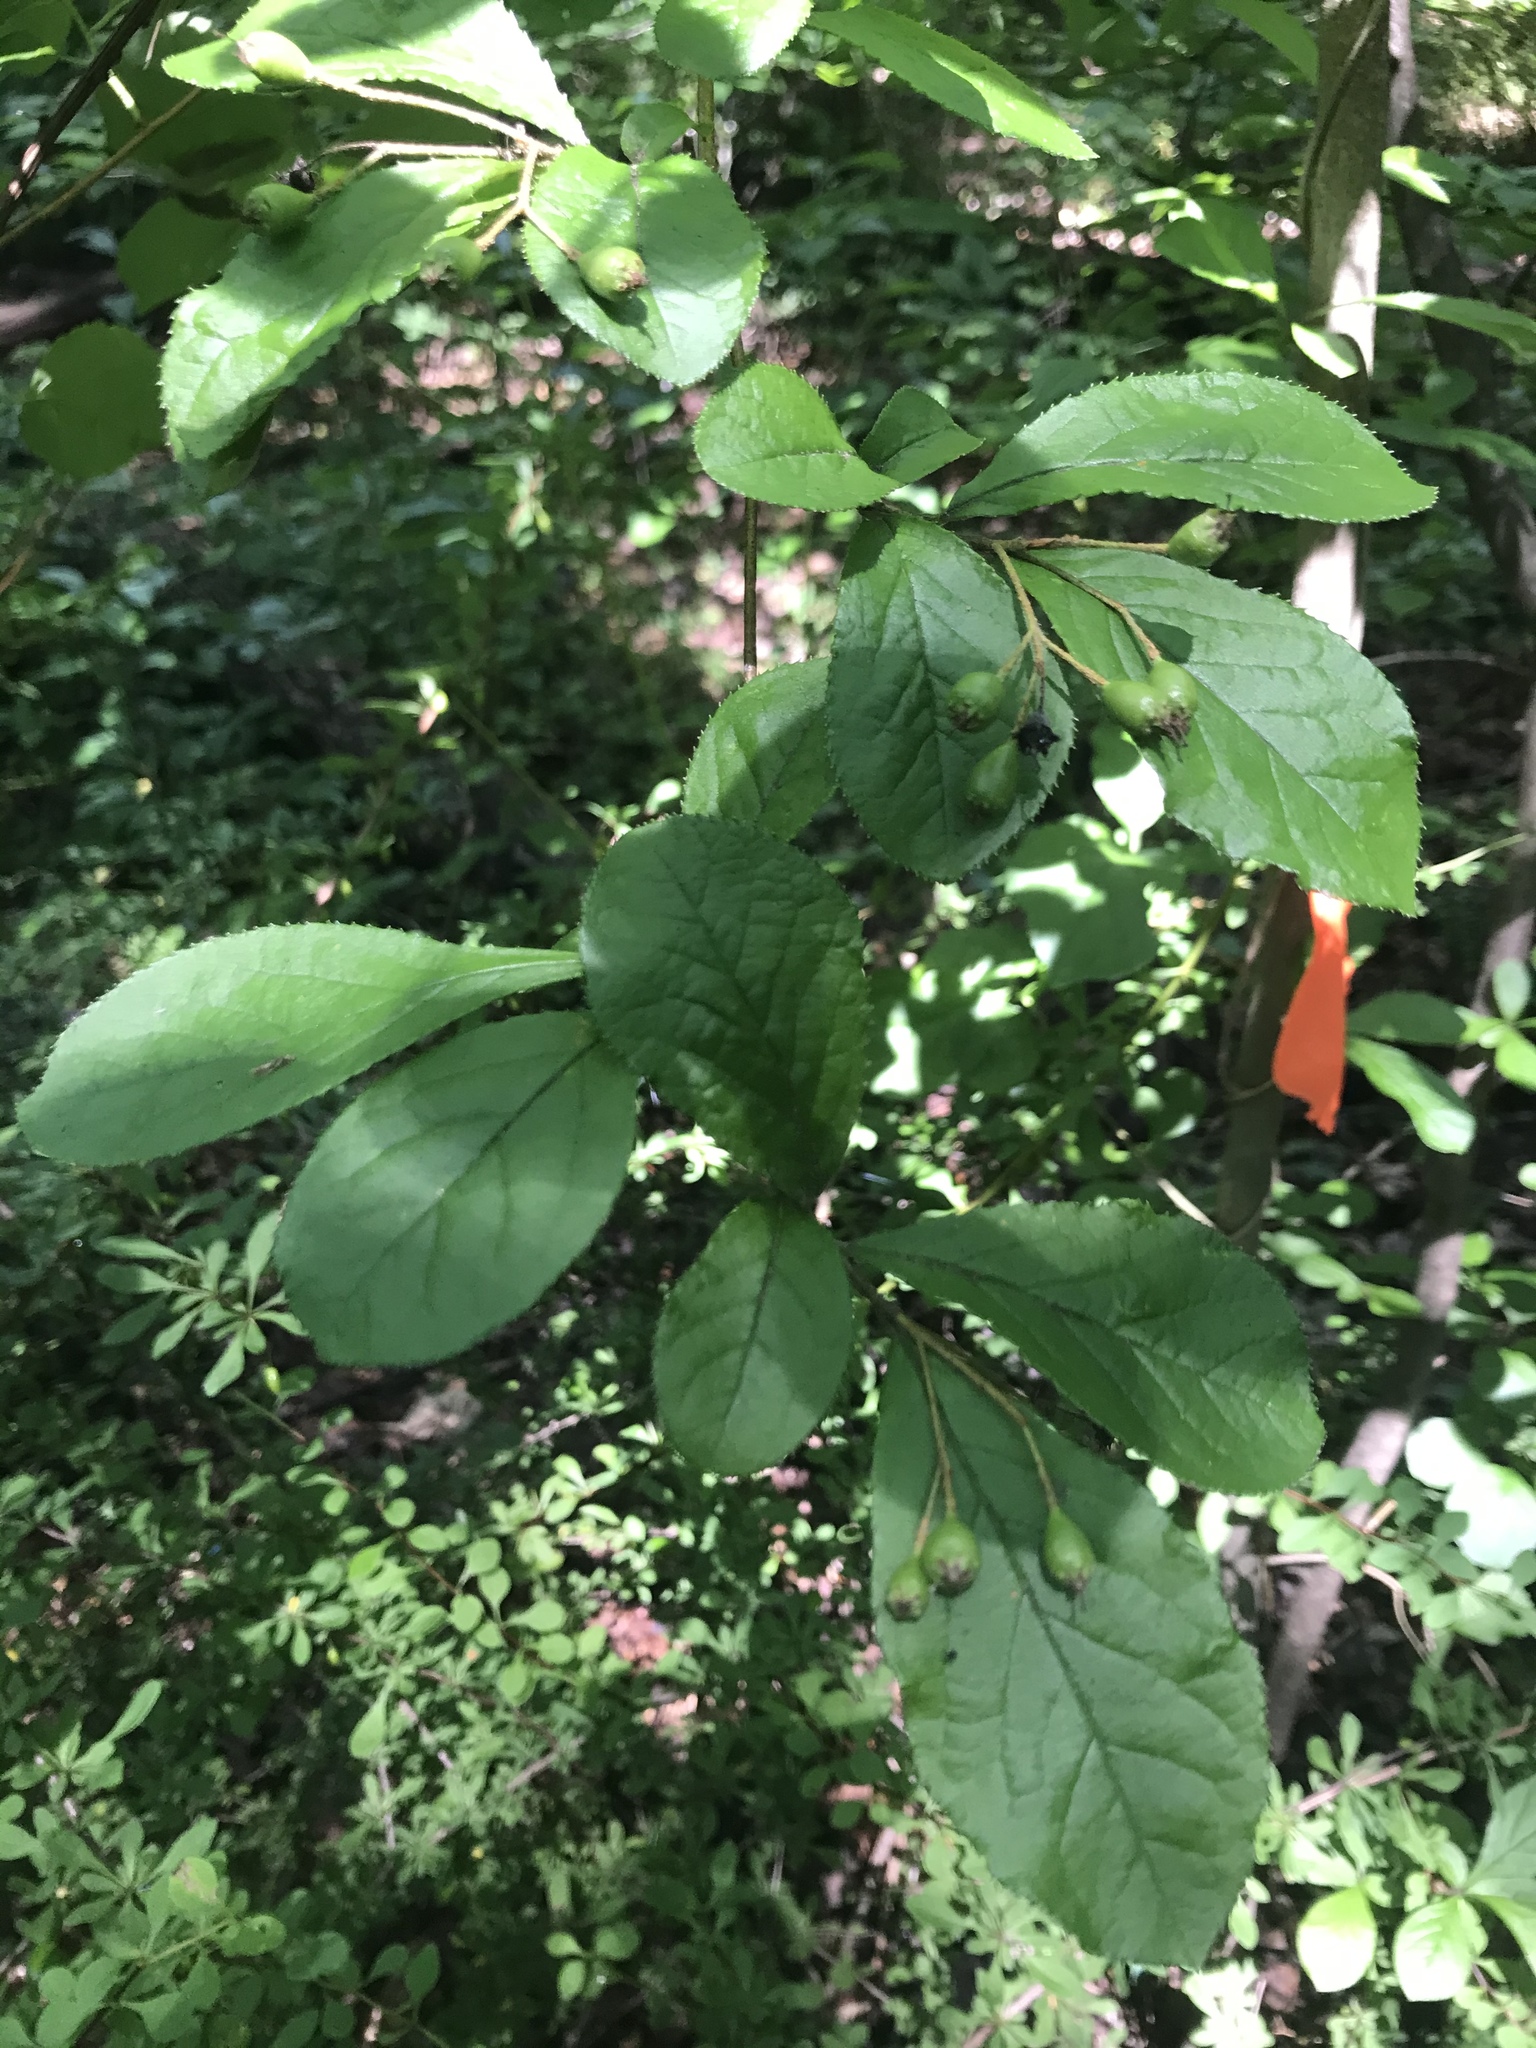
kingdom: Plantae
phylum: Tracheophyta
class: Magnoliopsida
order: Rosales
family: Rosaceae
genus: Pourthiaea
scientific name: Pourthiaea villosa
